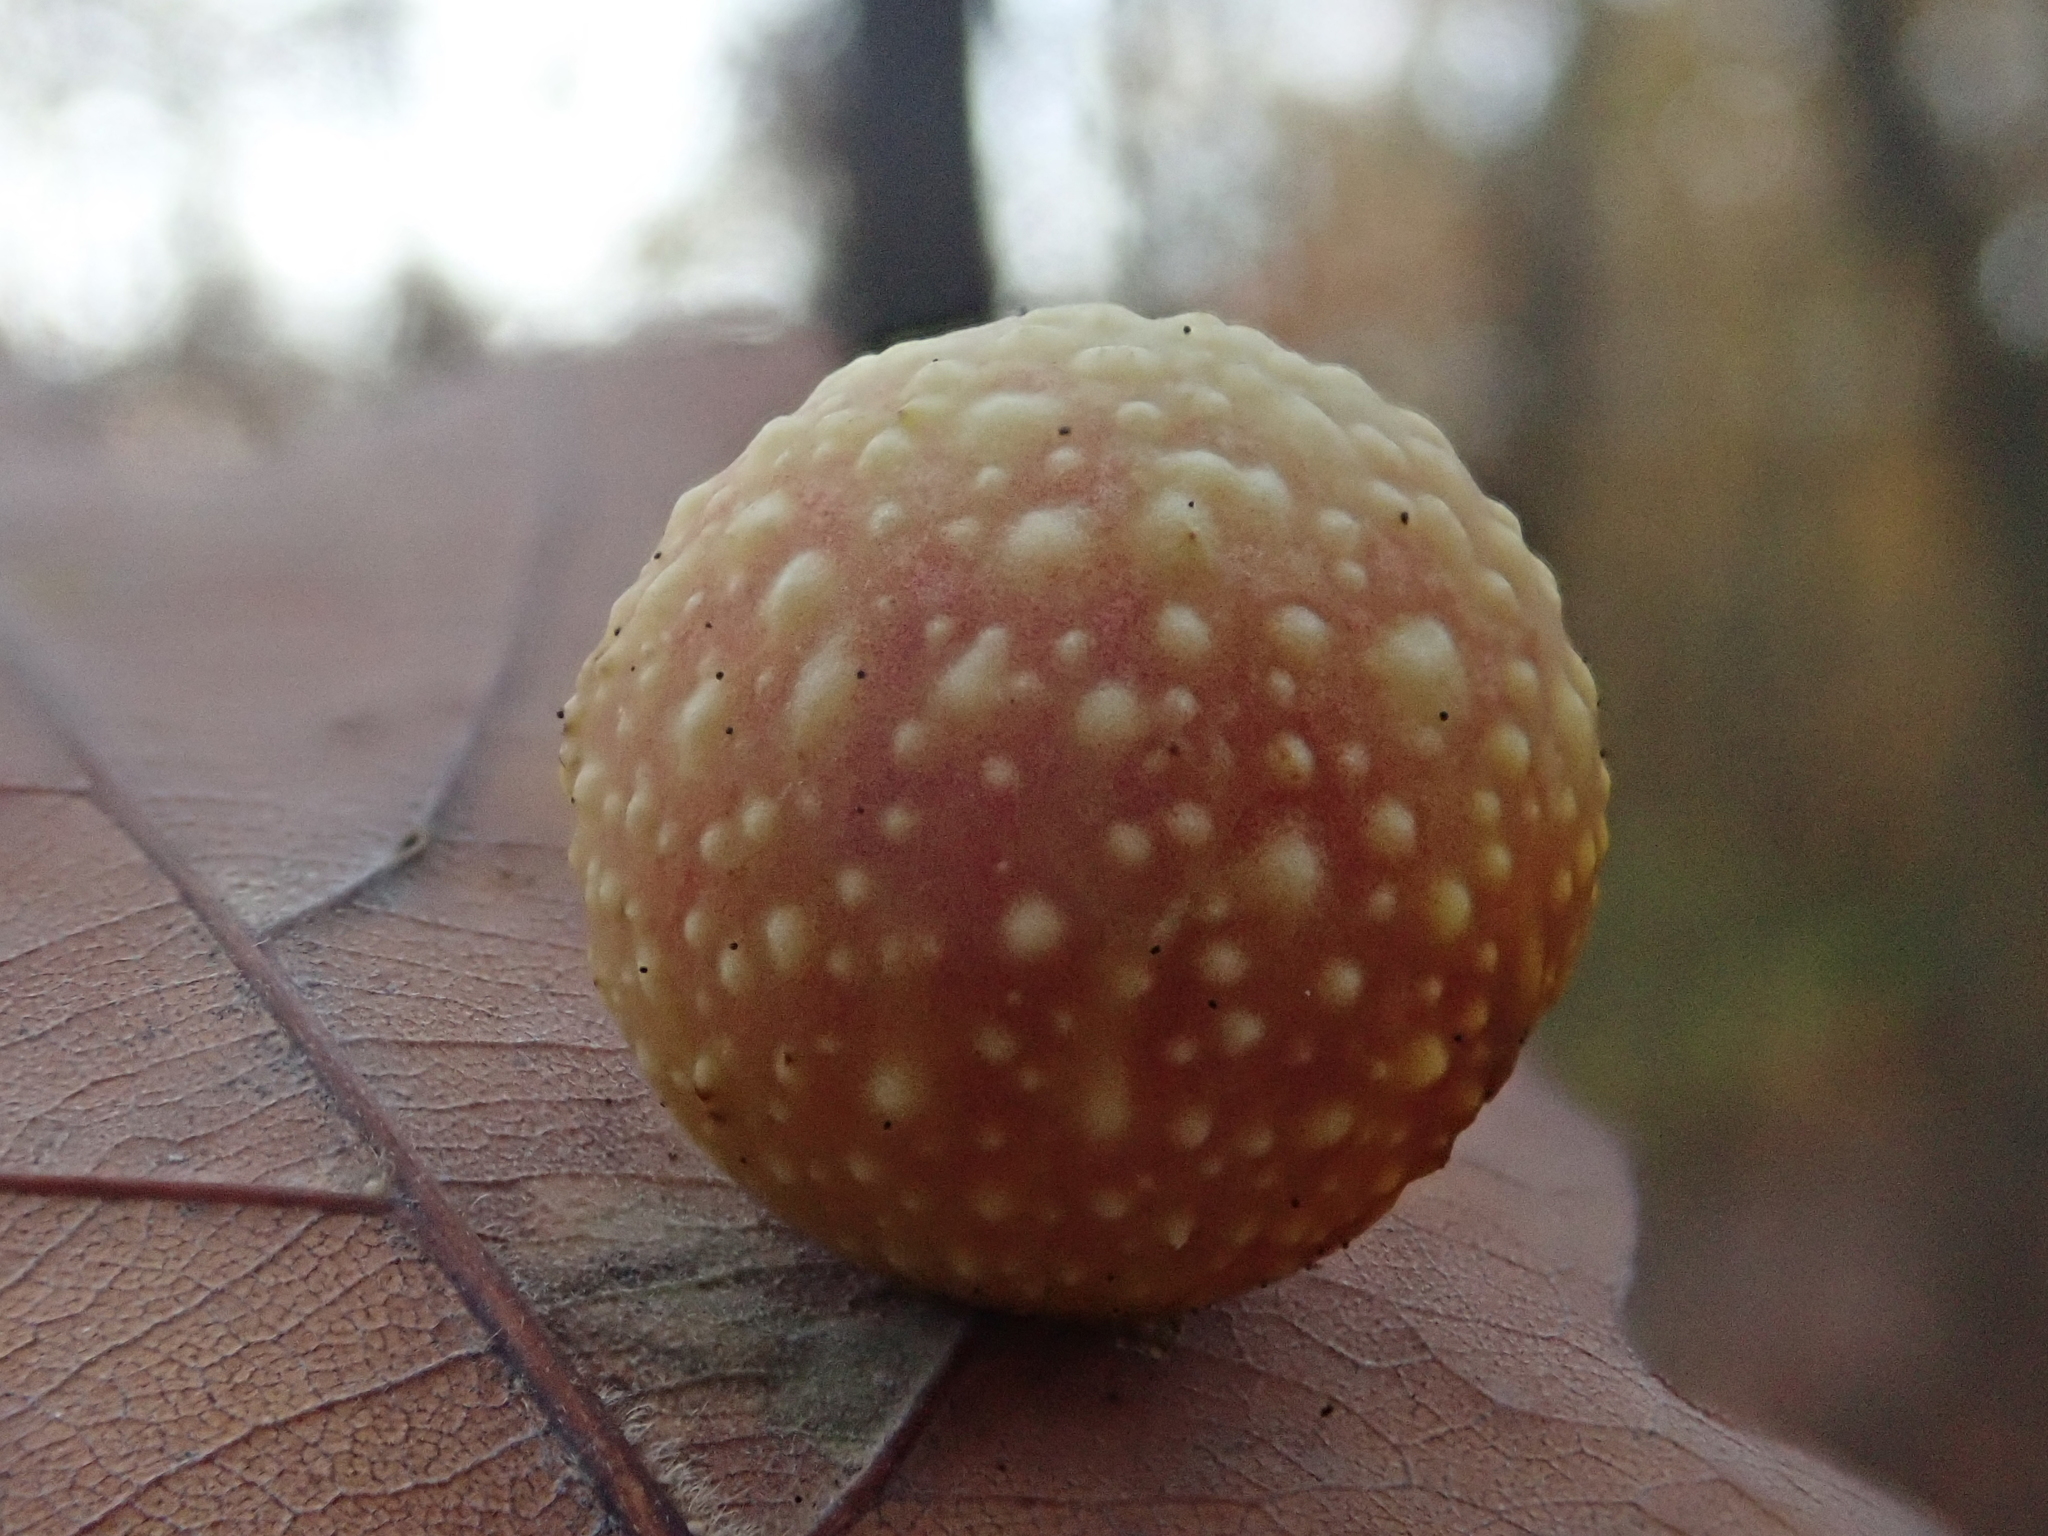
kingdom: Animalia
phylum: Arthropoda
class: Insecta
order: Hymenoptera
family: Cynipidae
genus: Cynips
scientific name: Cynips quercusfolii
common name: Cherry gall
